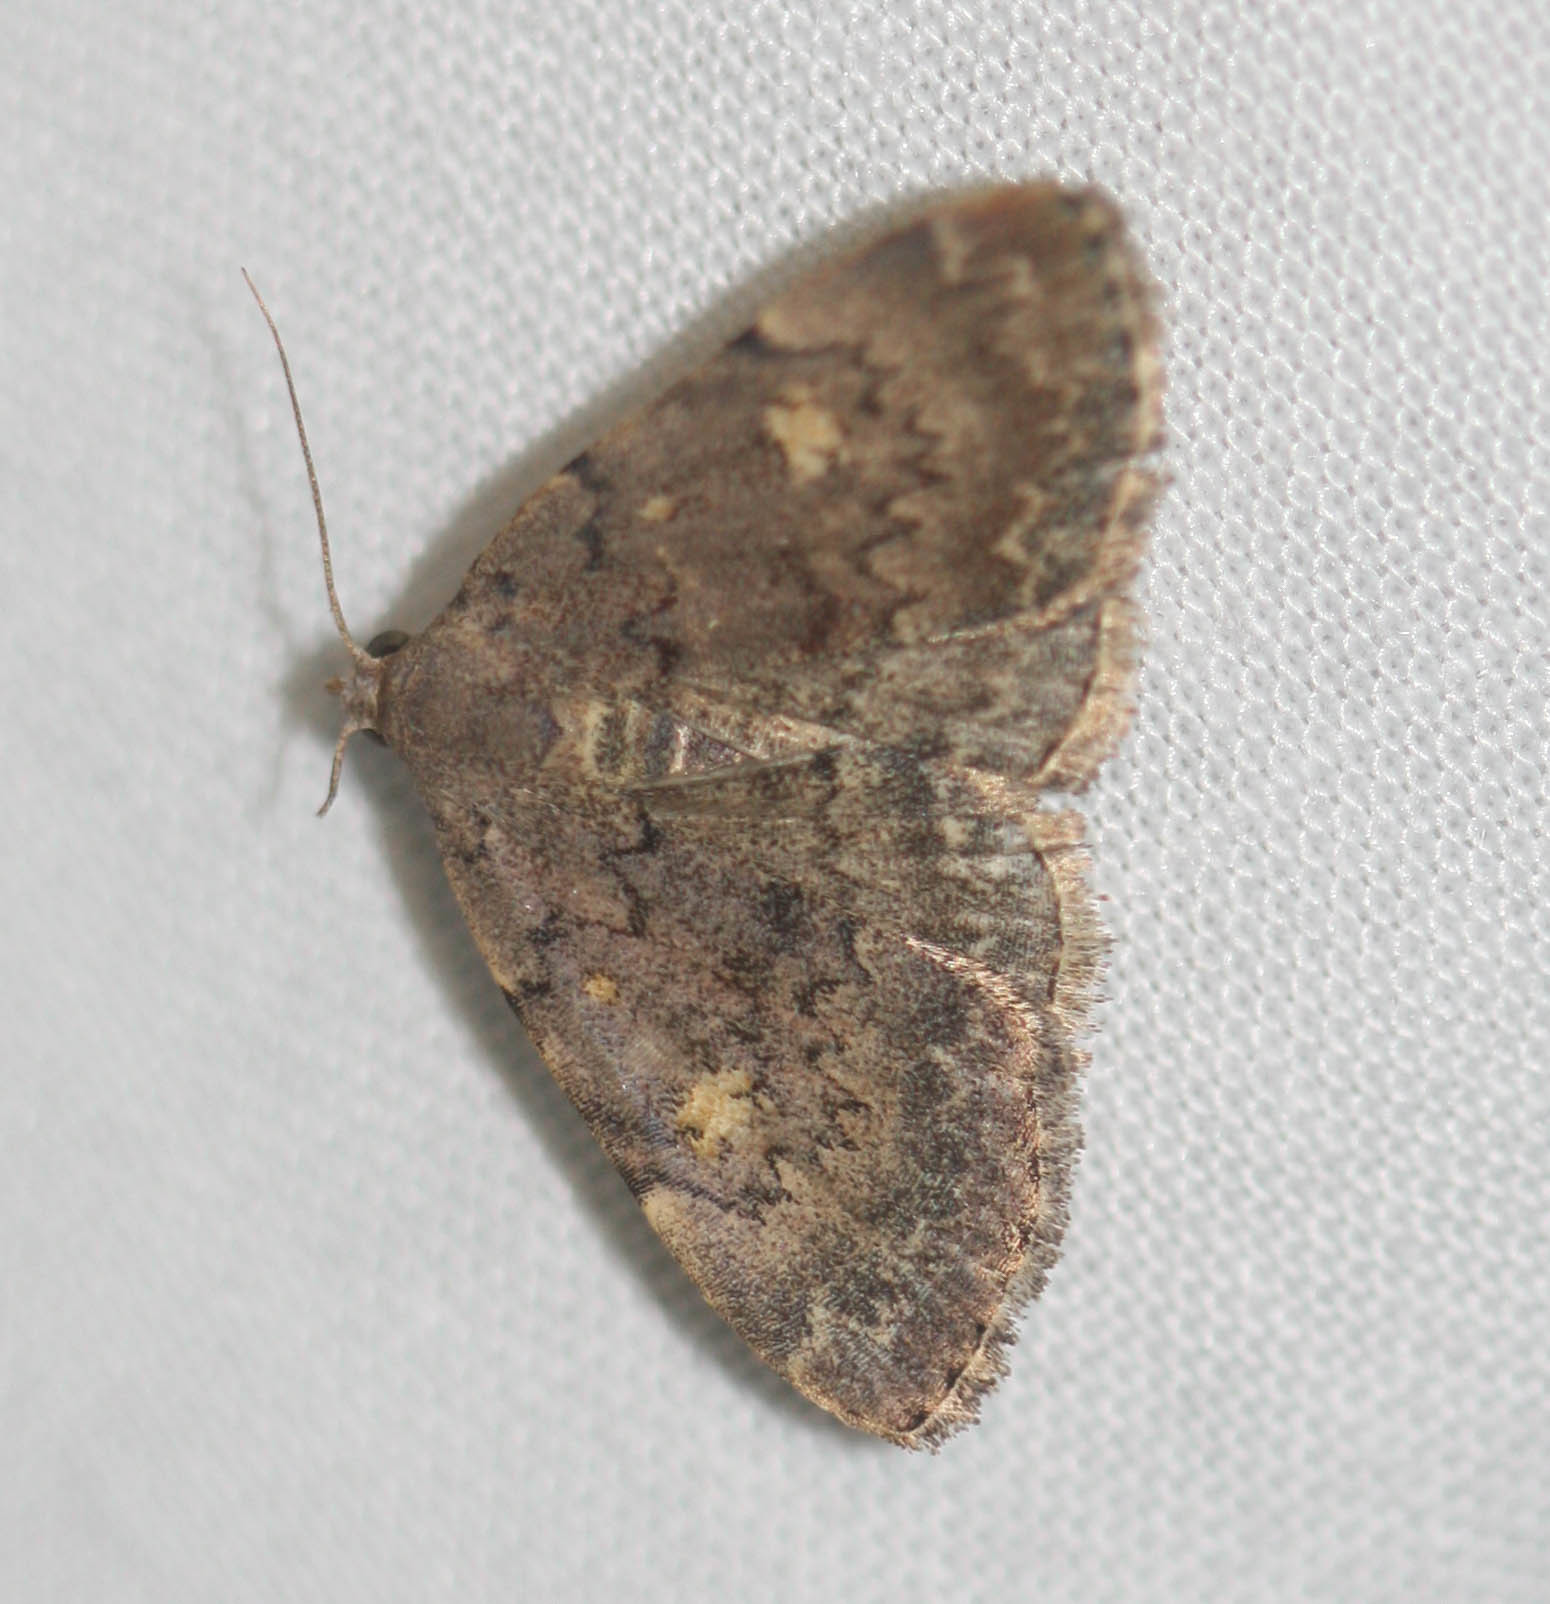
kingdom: Animalia
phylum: Arthropoda
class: Insecta
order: Lepidoptera
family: Erebidae
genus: Idia
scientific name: Idia aemula
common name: Common idia moth
